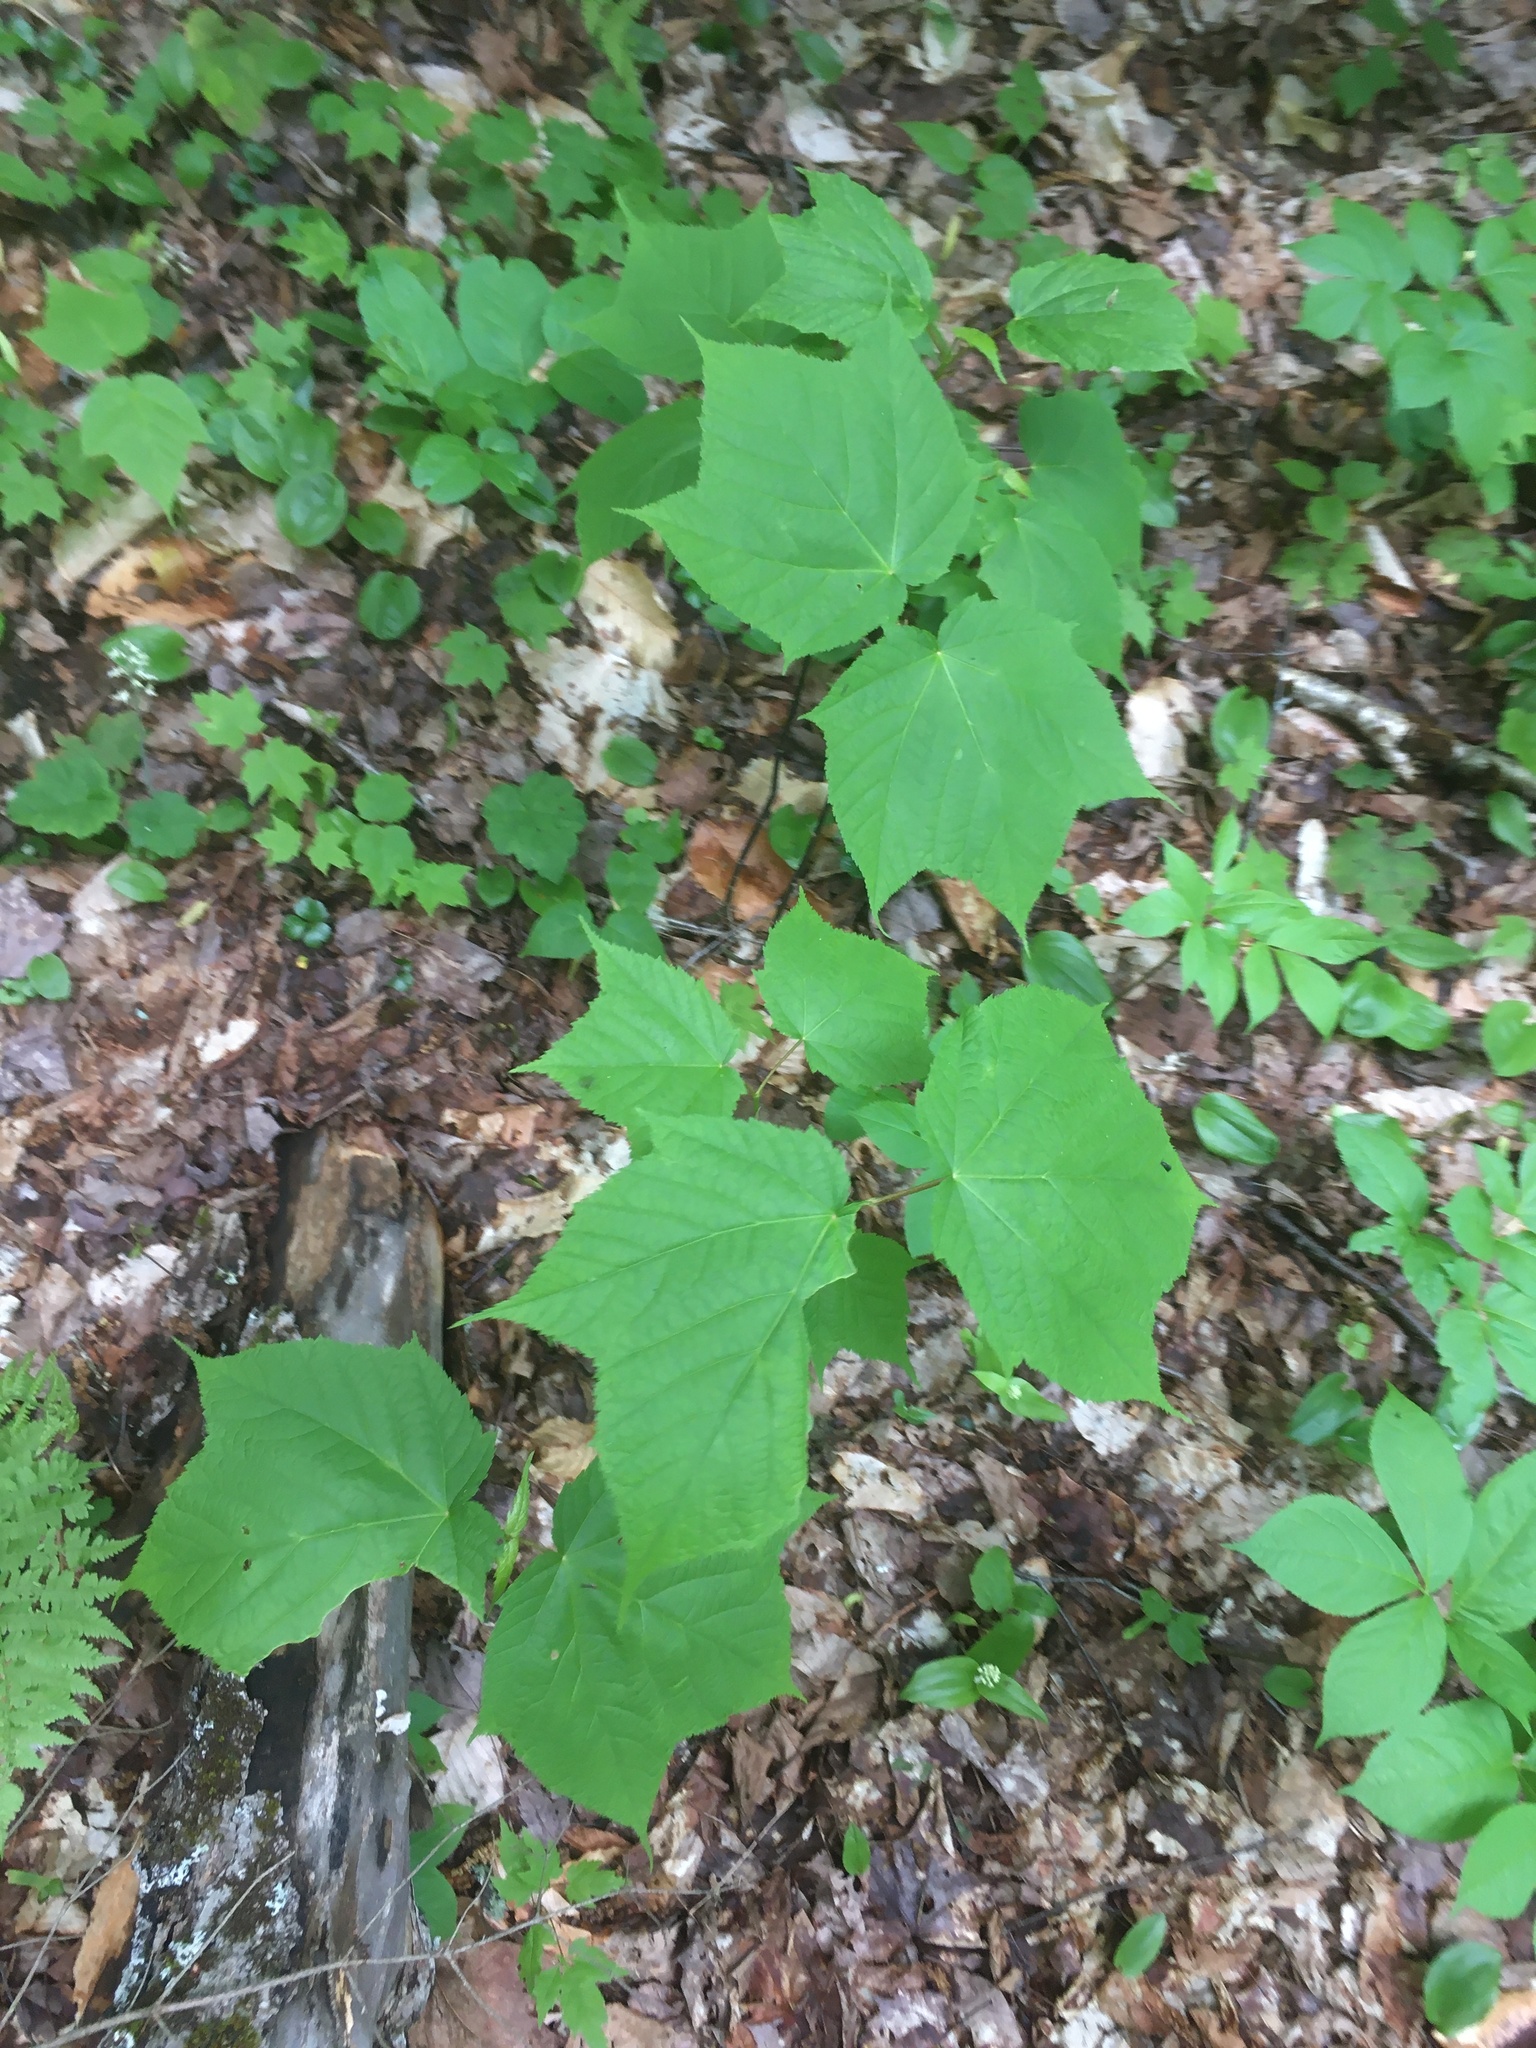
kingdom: Plantae
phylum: Tracheophyta
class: Magnoliopsida
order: Sapindales
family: Sapindaceae
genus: Acer
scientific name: Acer pensylvanicum
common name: Moosewood
